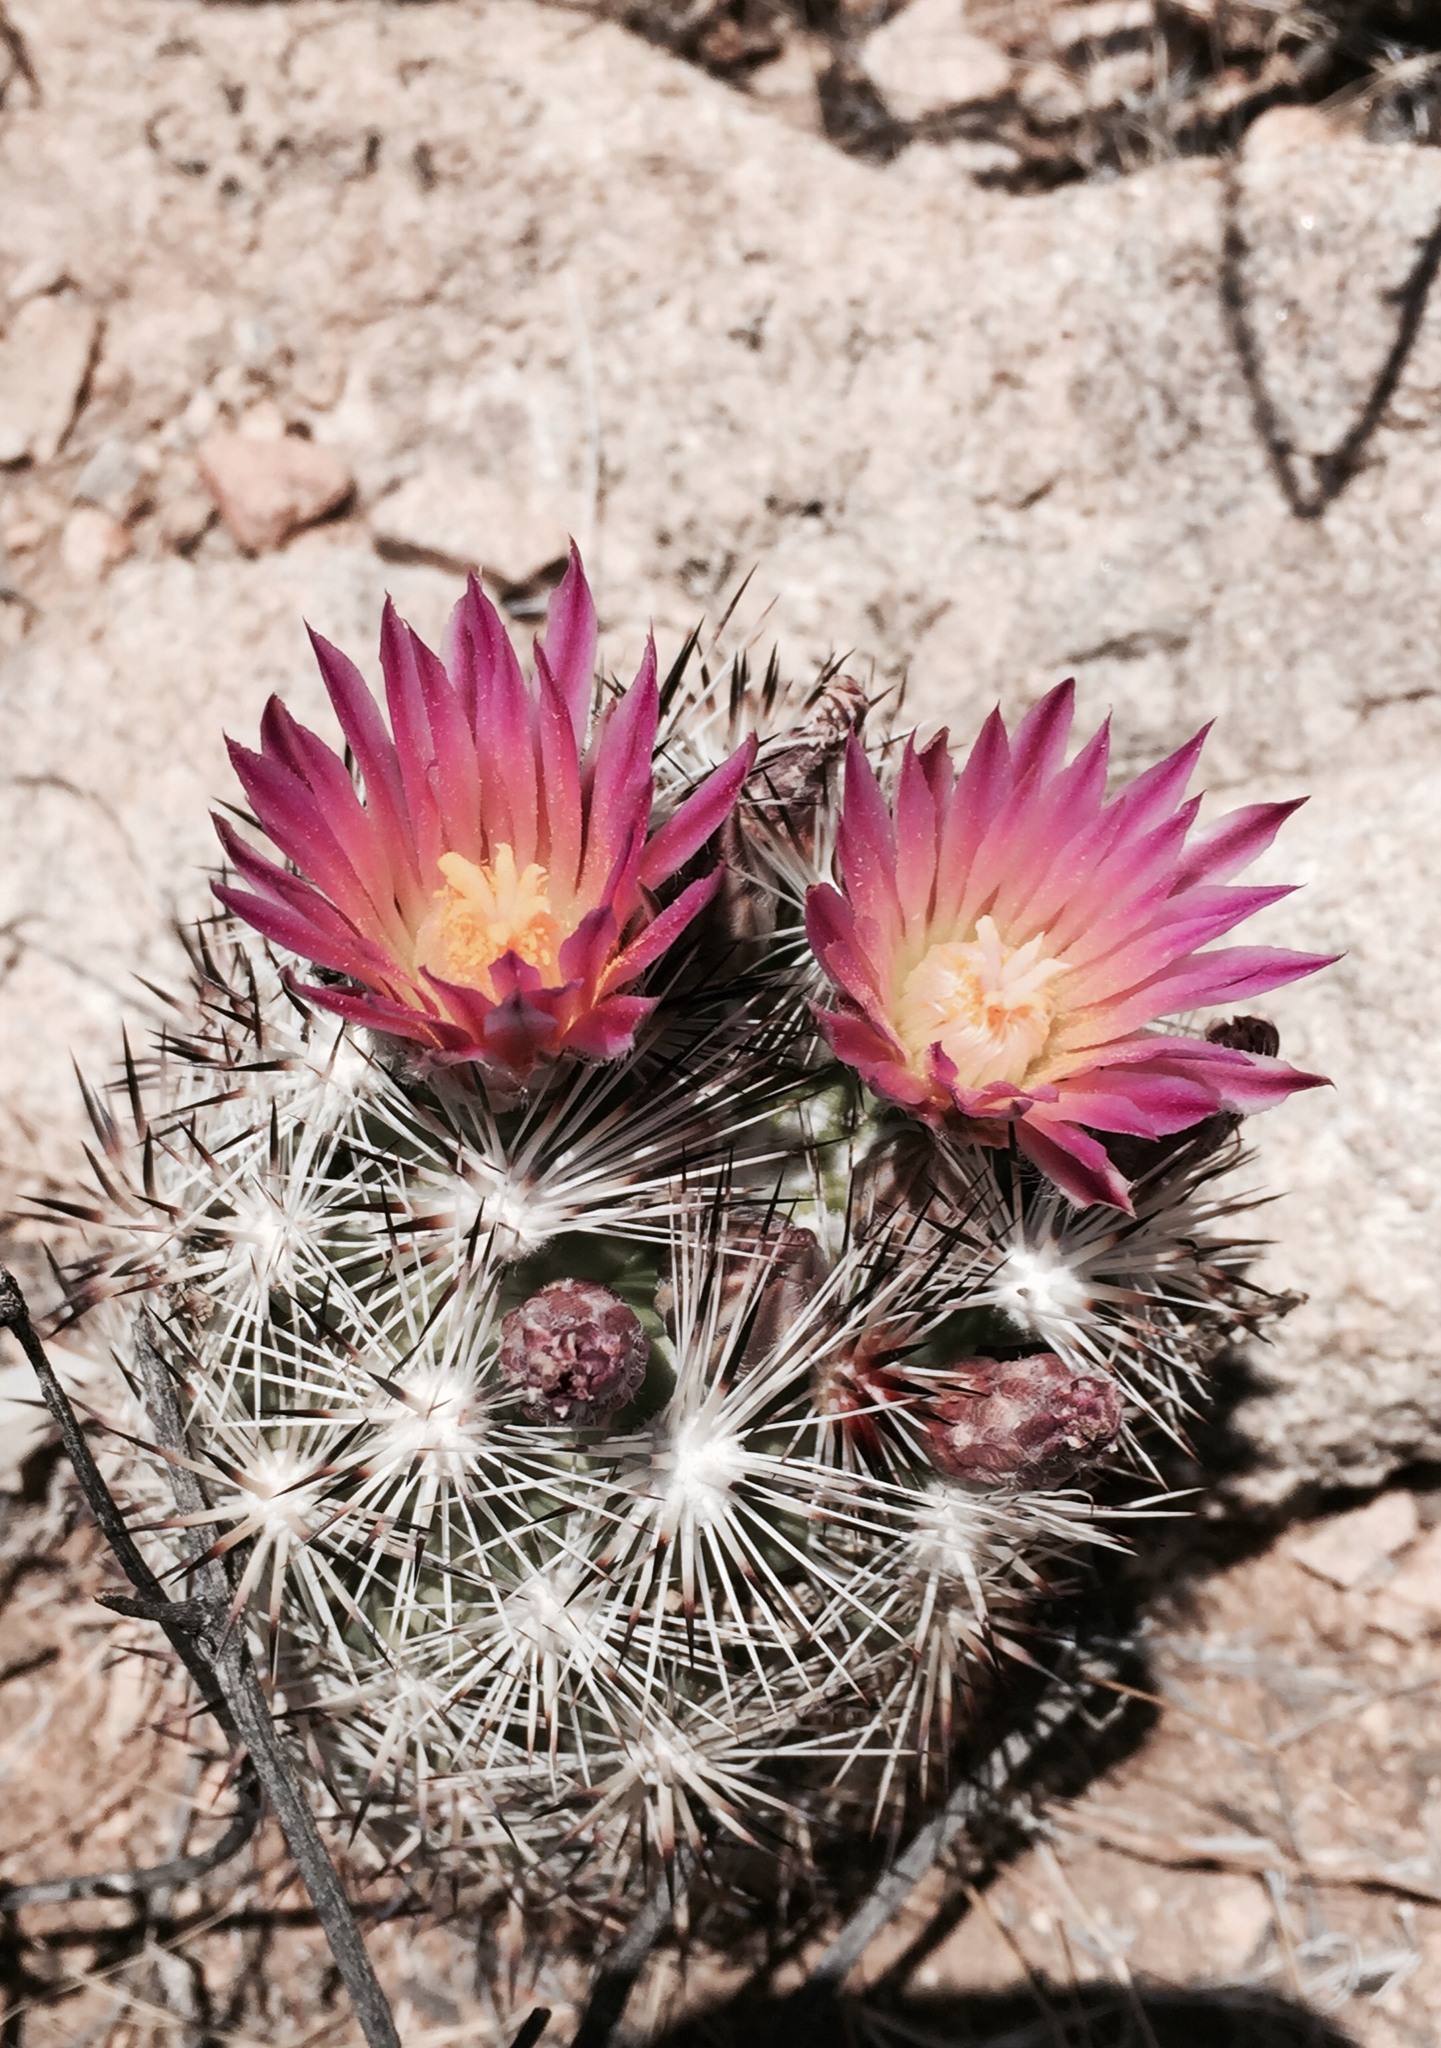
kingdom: Plantae
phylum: Tracheophyta
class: Magnoliopsida
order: Caryophyllales
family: Cactaceae
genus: Pelecyphora
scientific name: Pelecyphora alversonii
